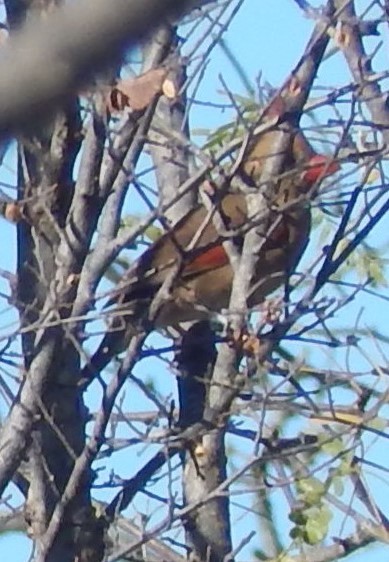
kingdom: Animalia
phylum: Chordata
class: Aves
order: Passeriformes
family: Cardinalidae
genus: Cardinalis
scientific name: Cardinalis cardinalis
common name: Northern cardinal
